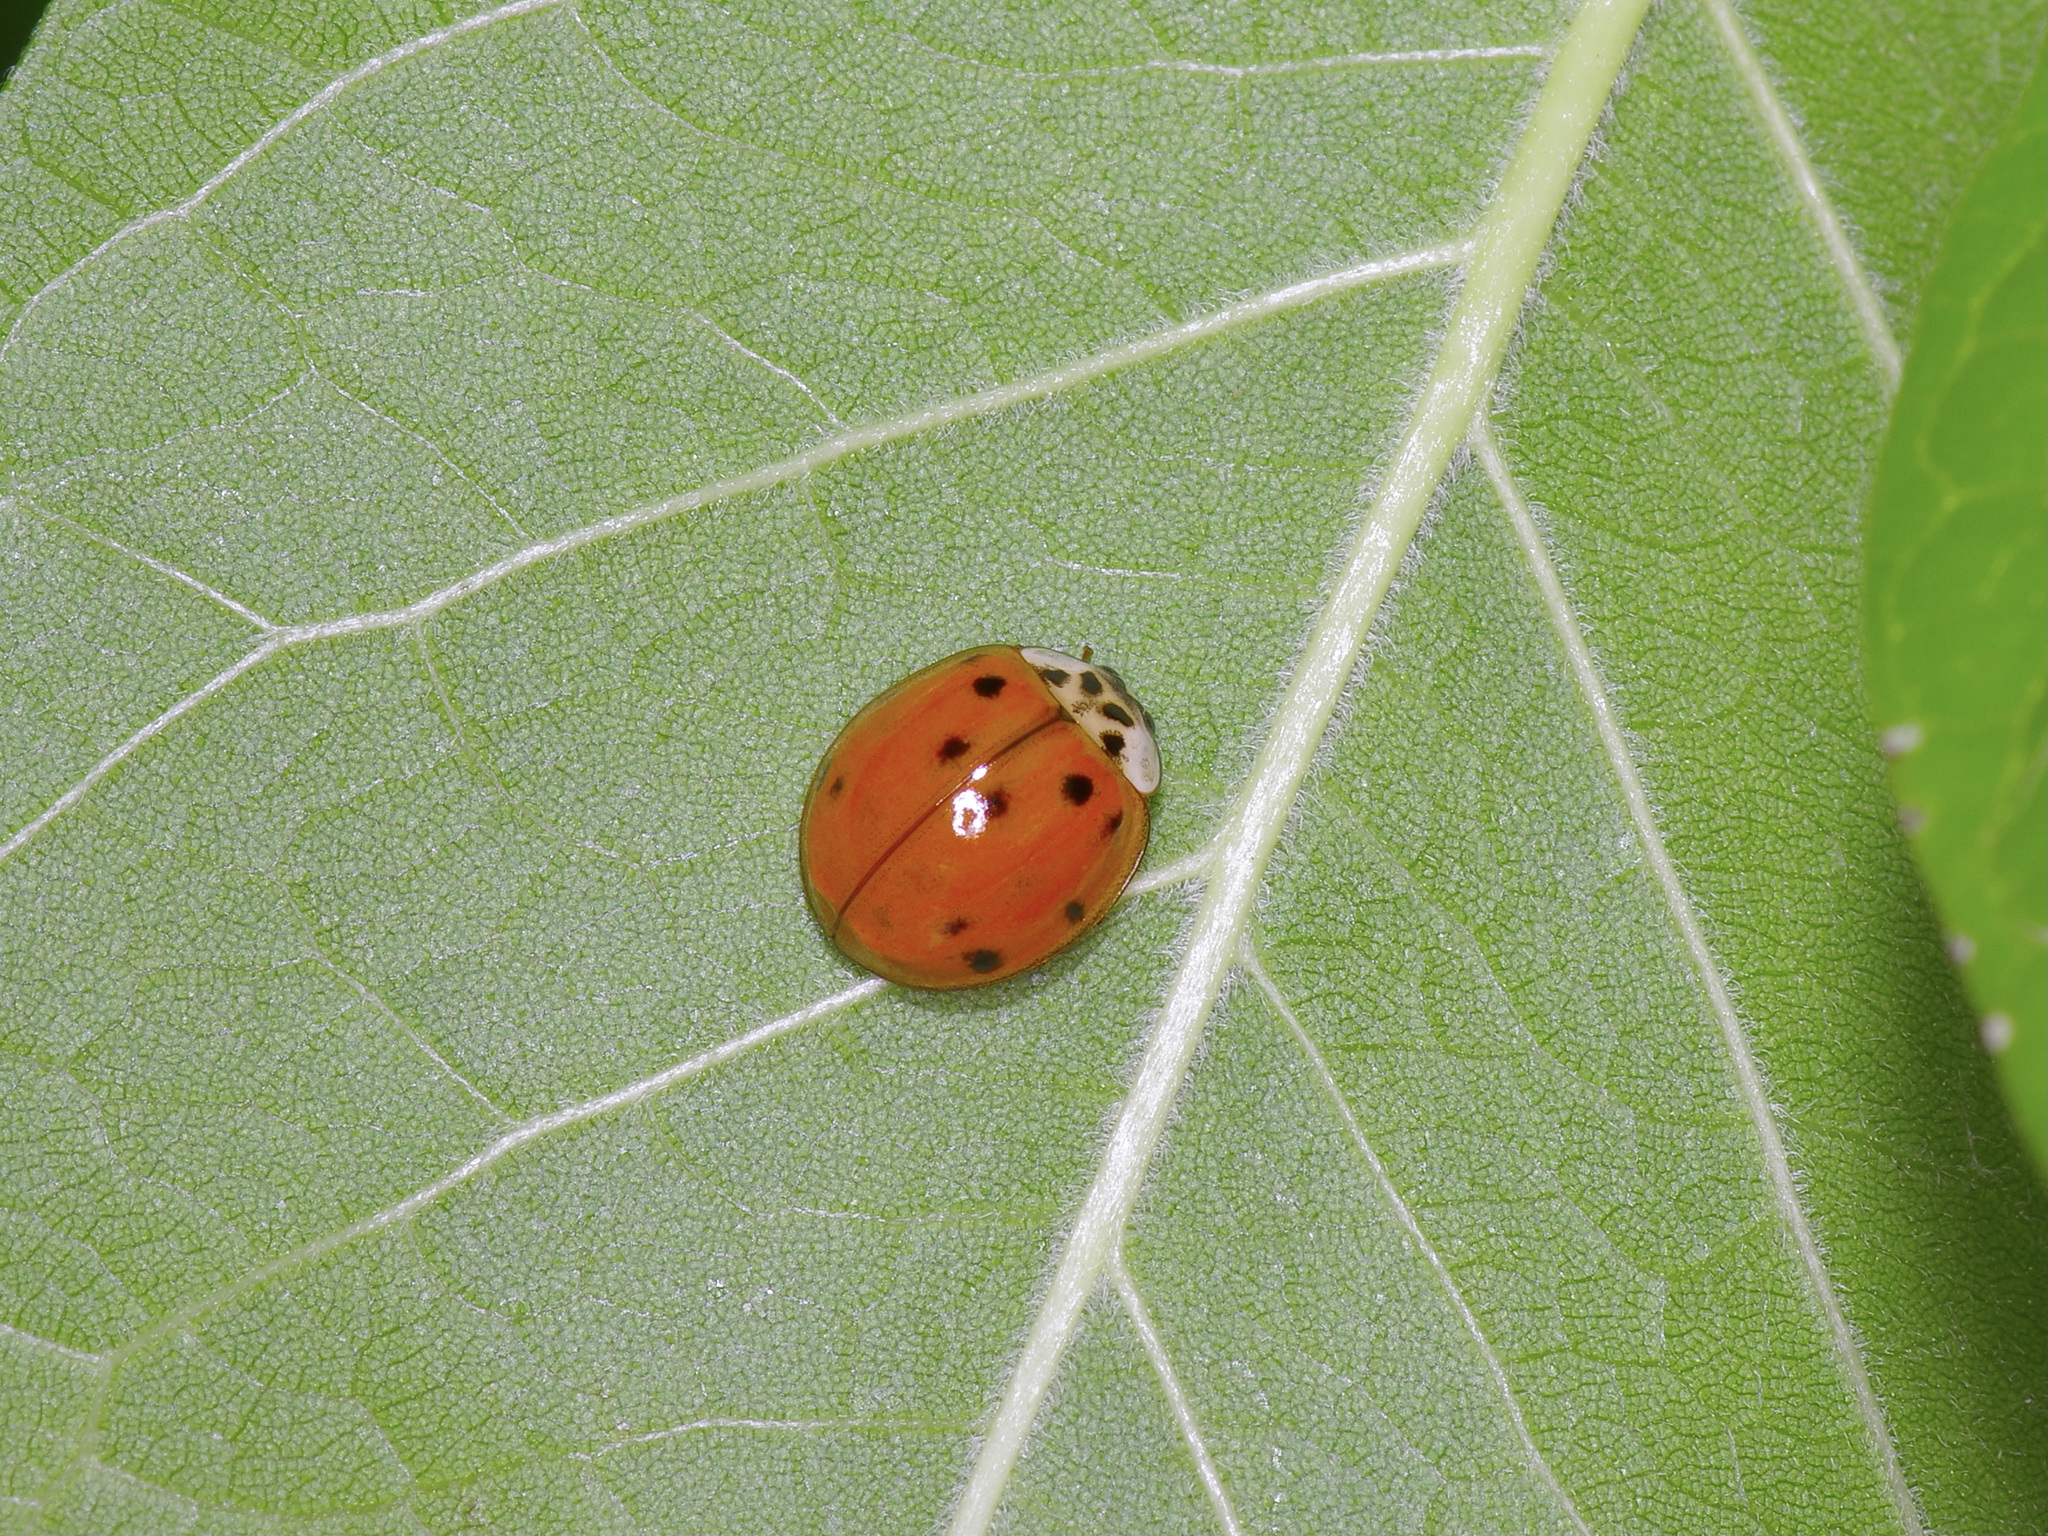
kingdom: Animalia
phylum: Arthropoda
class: Insecta
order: Coleoptera
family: Coccinellidae
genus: Harmonia
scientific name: Harmonia axyridis
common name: Harlequin ladybird
